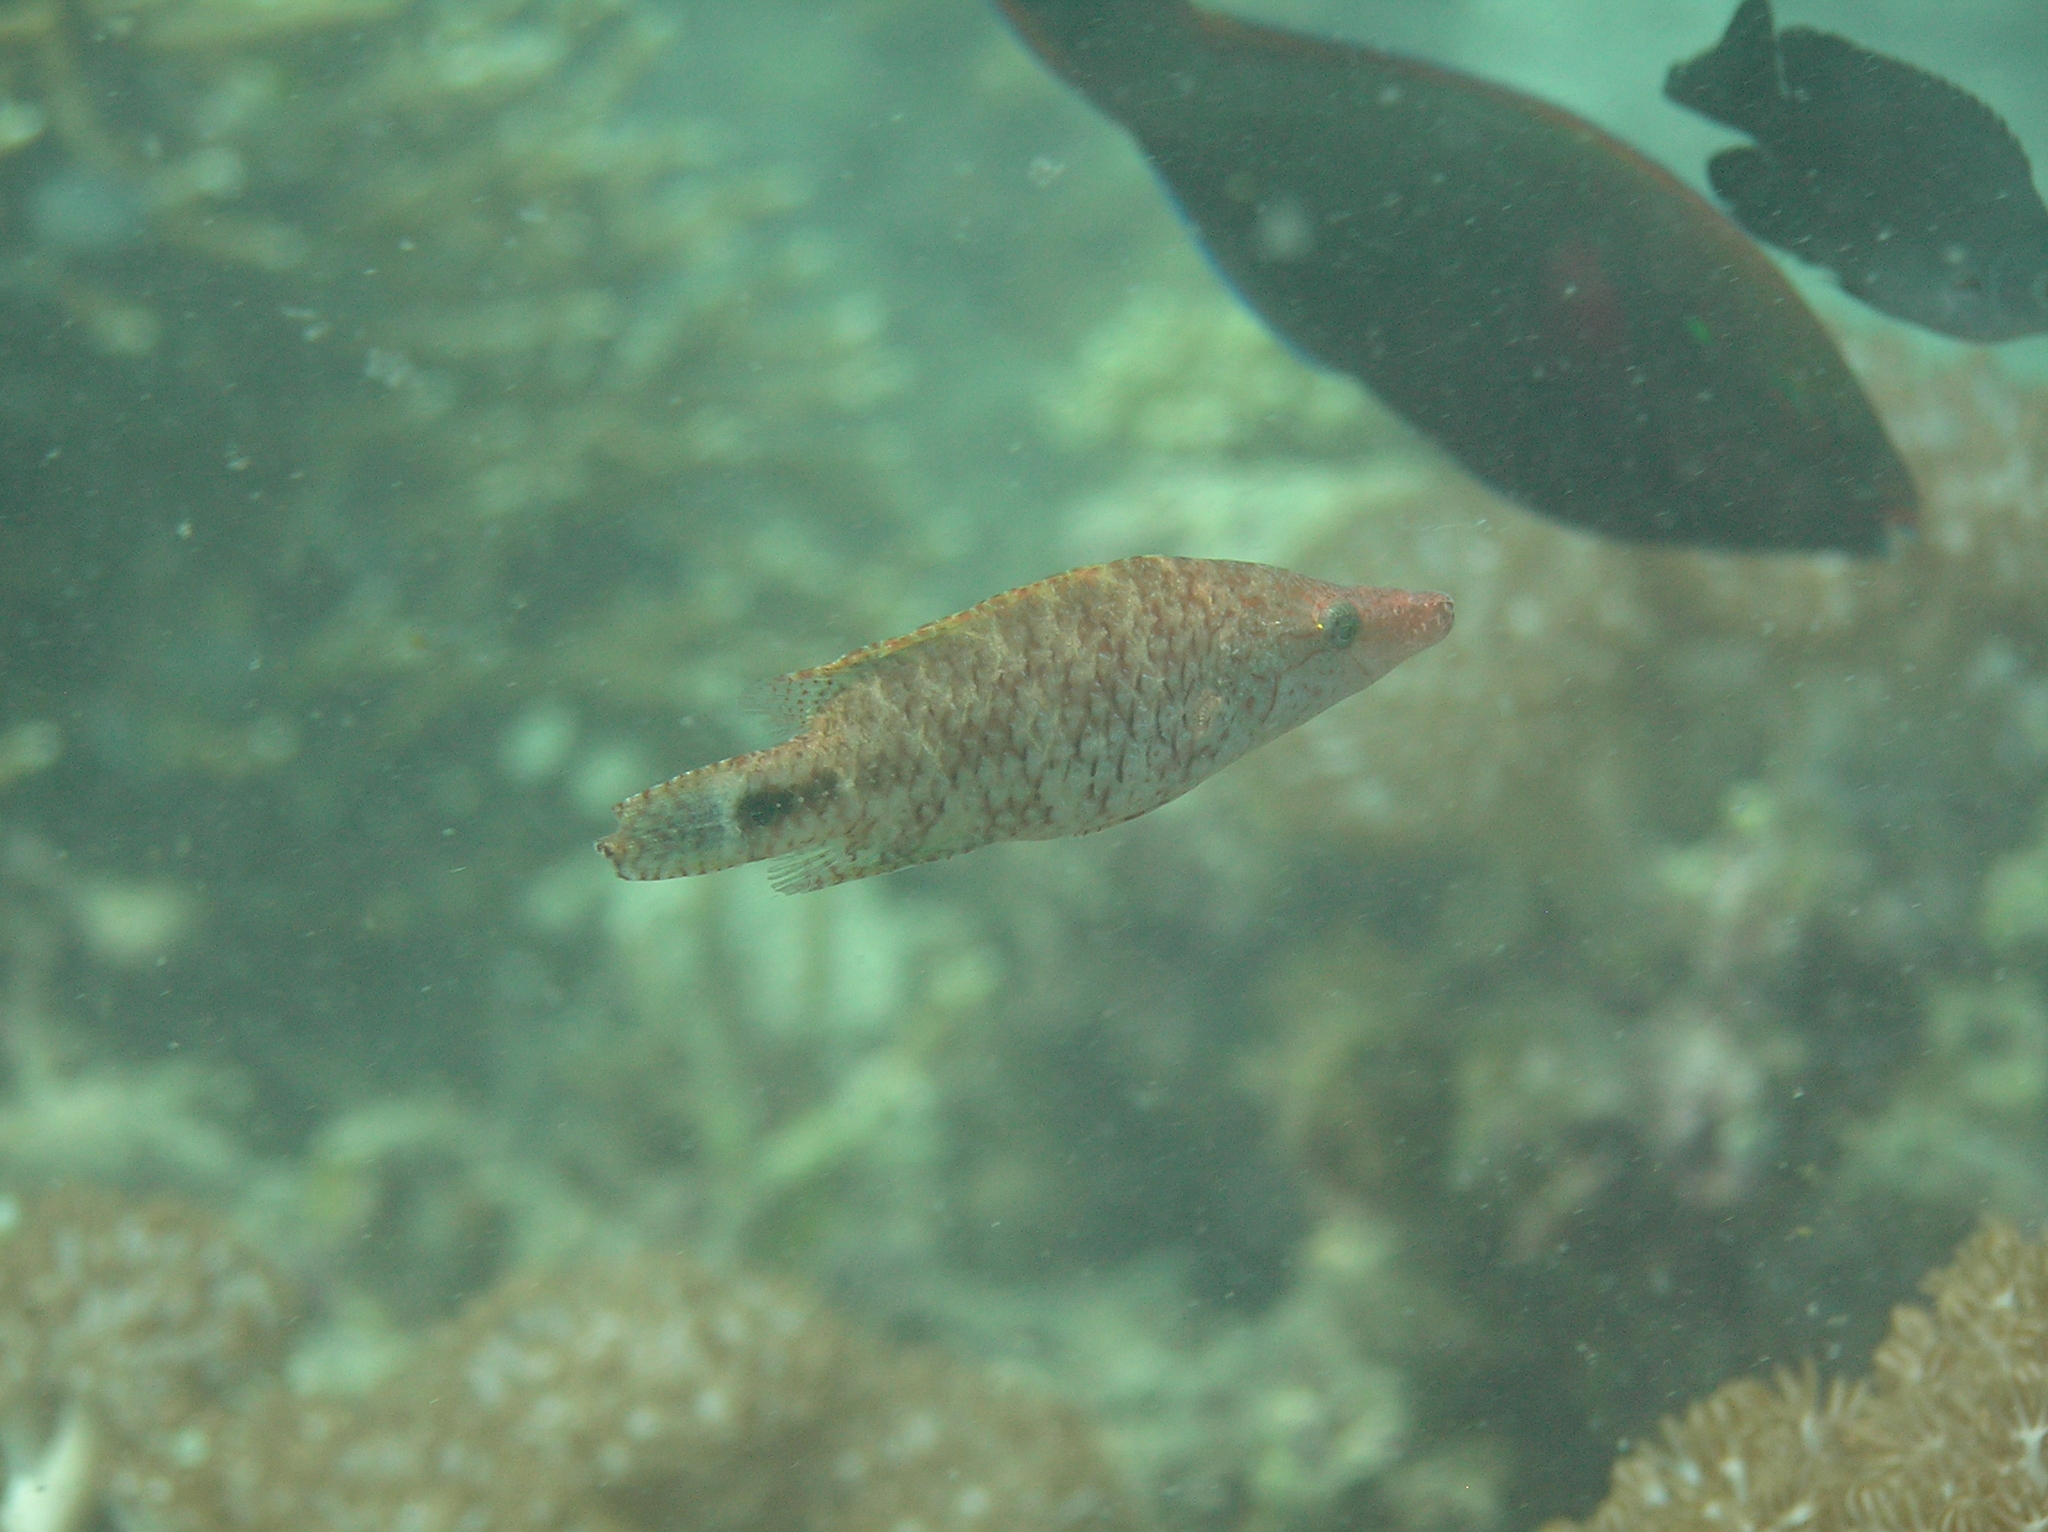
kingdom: Animalia
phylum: Chordata
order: Perciformes
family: Labridae
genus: Oxycheilinus
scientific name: Oxycheilinus celebicus
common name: Celebes maori wrasse
